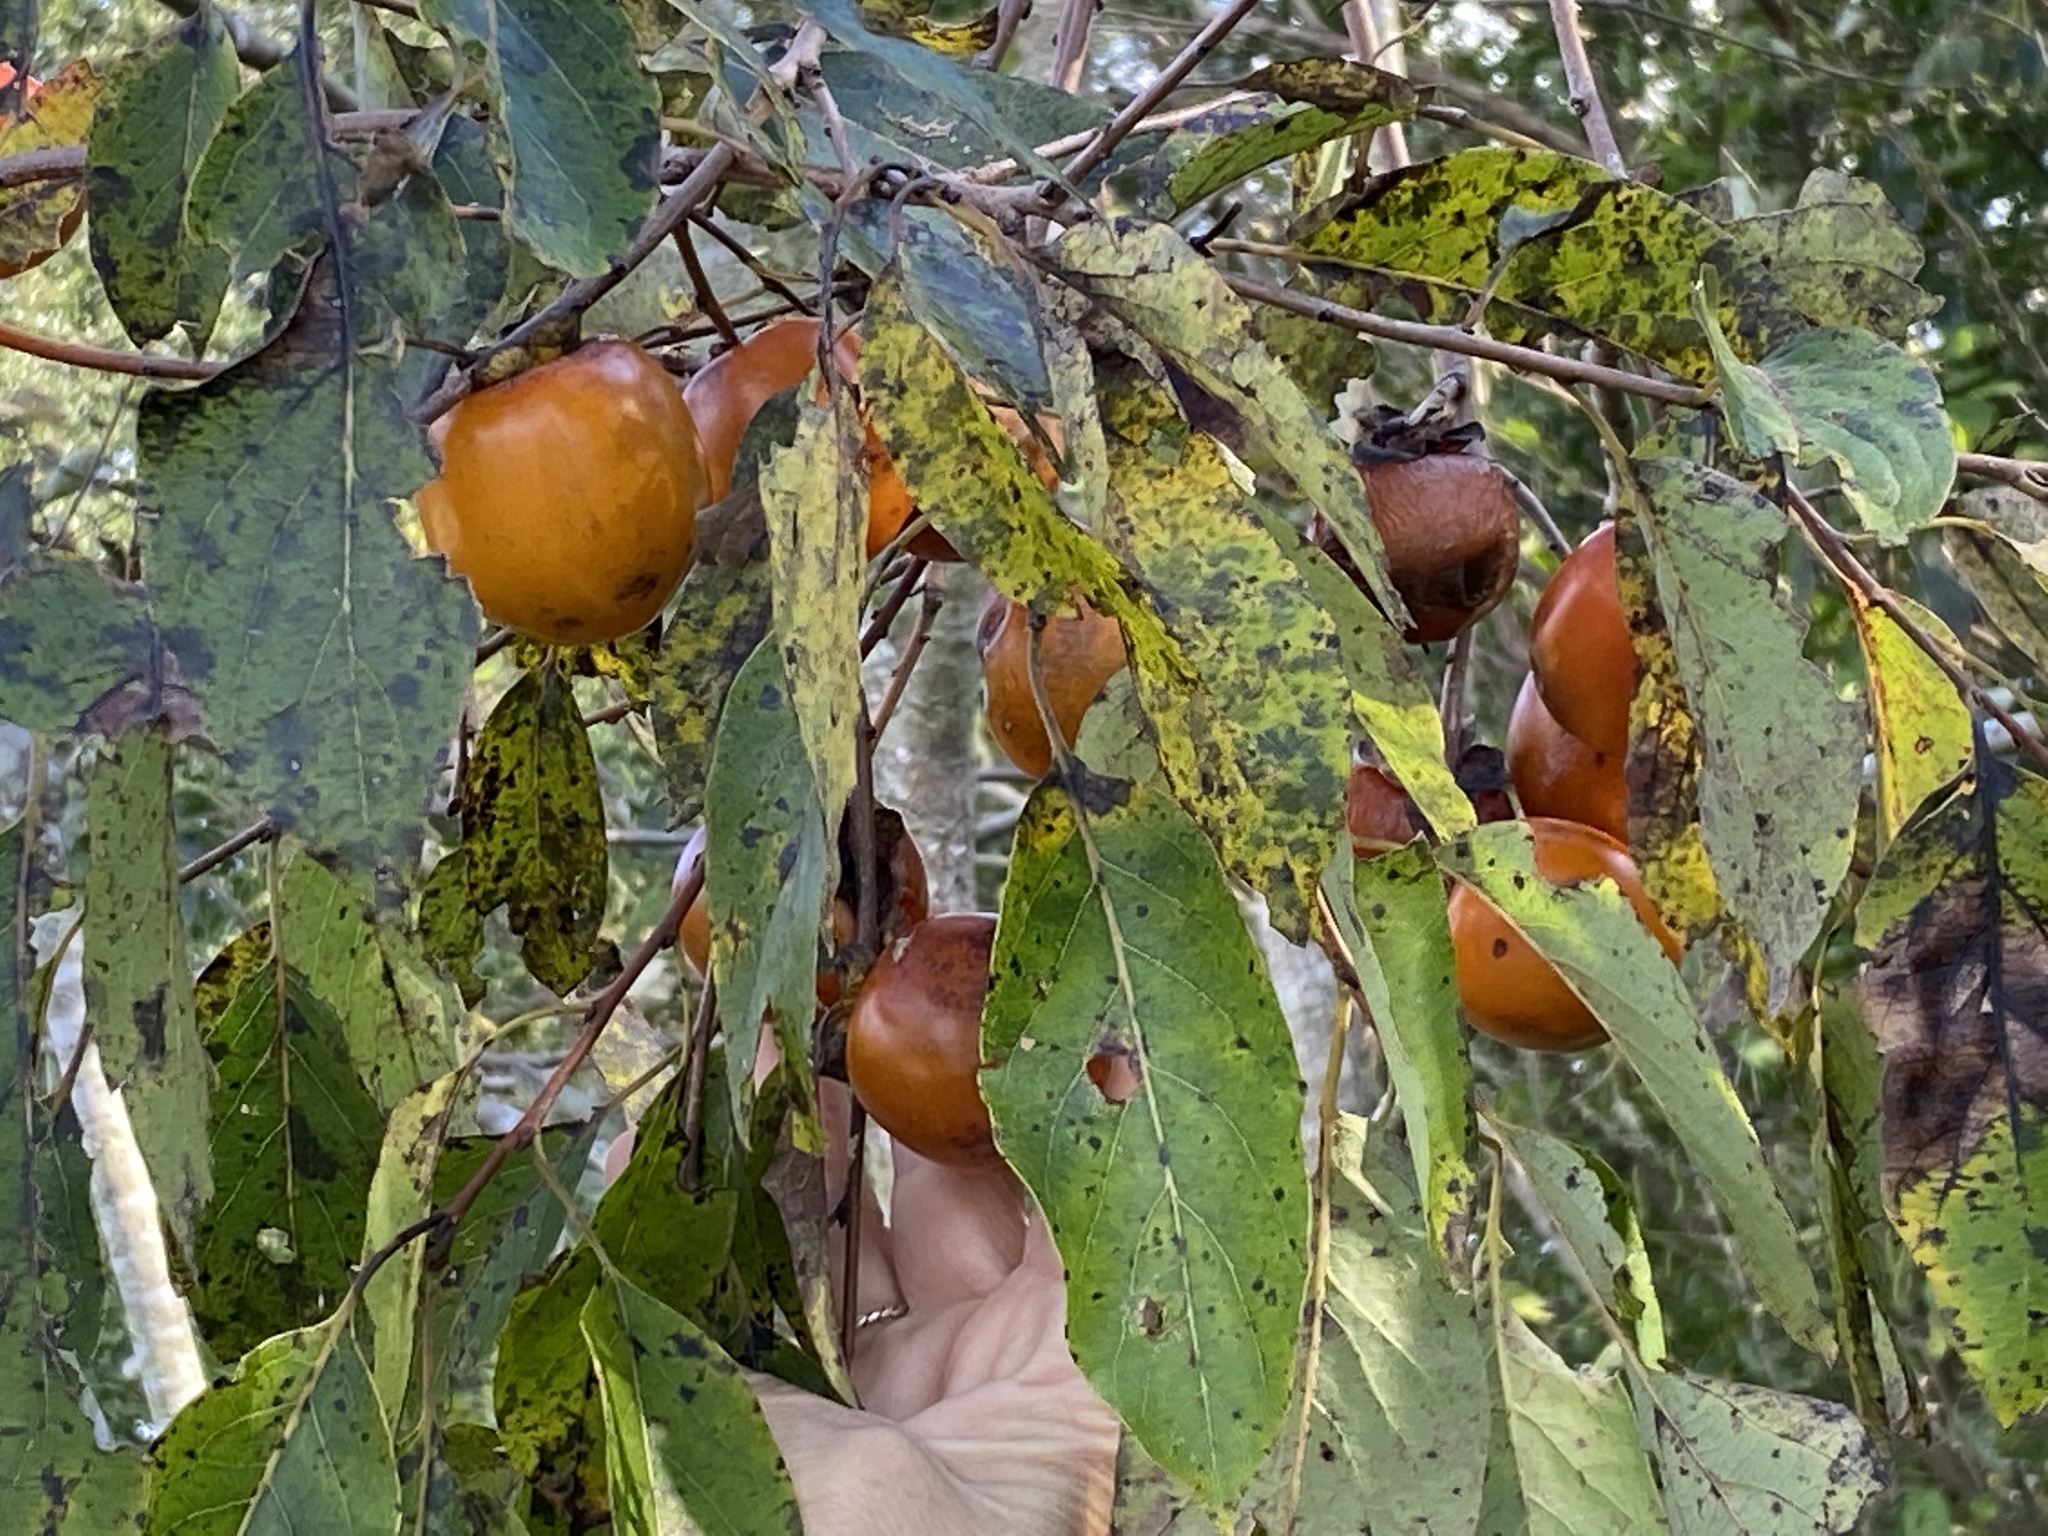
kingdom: Plantae
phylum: Tracheophyta
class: Magnoliopsida
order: Ericales
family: Ebenaceae
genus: Diospyros
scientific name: Diospyros virginiana
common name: Persimmon
